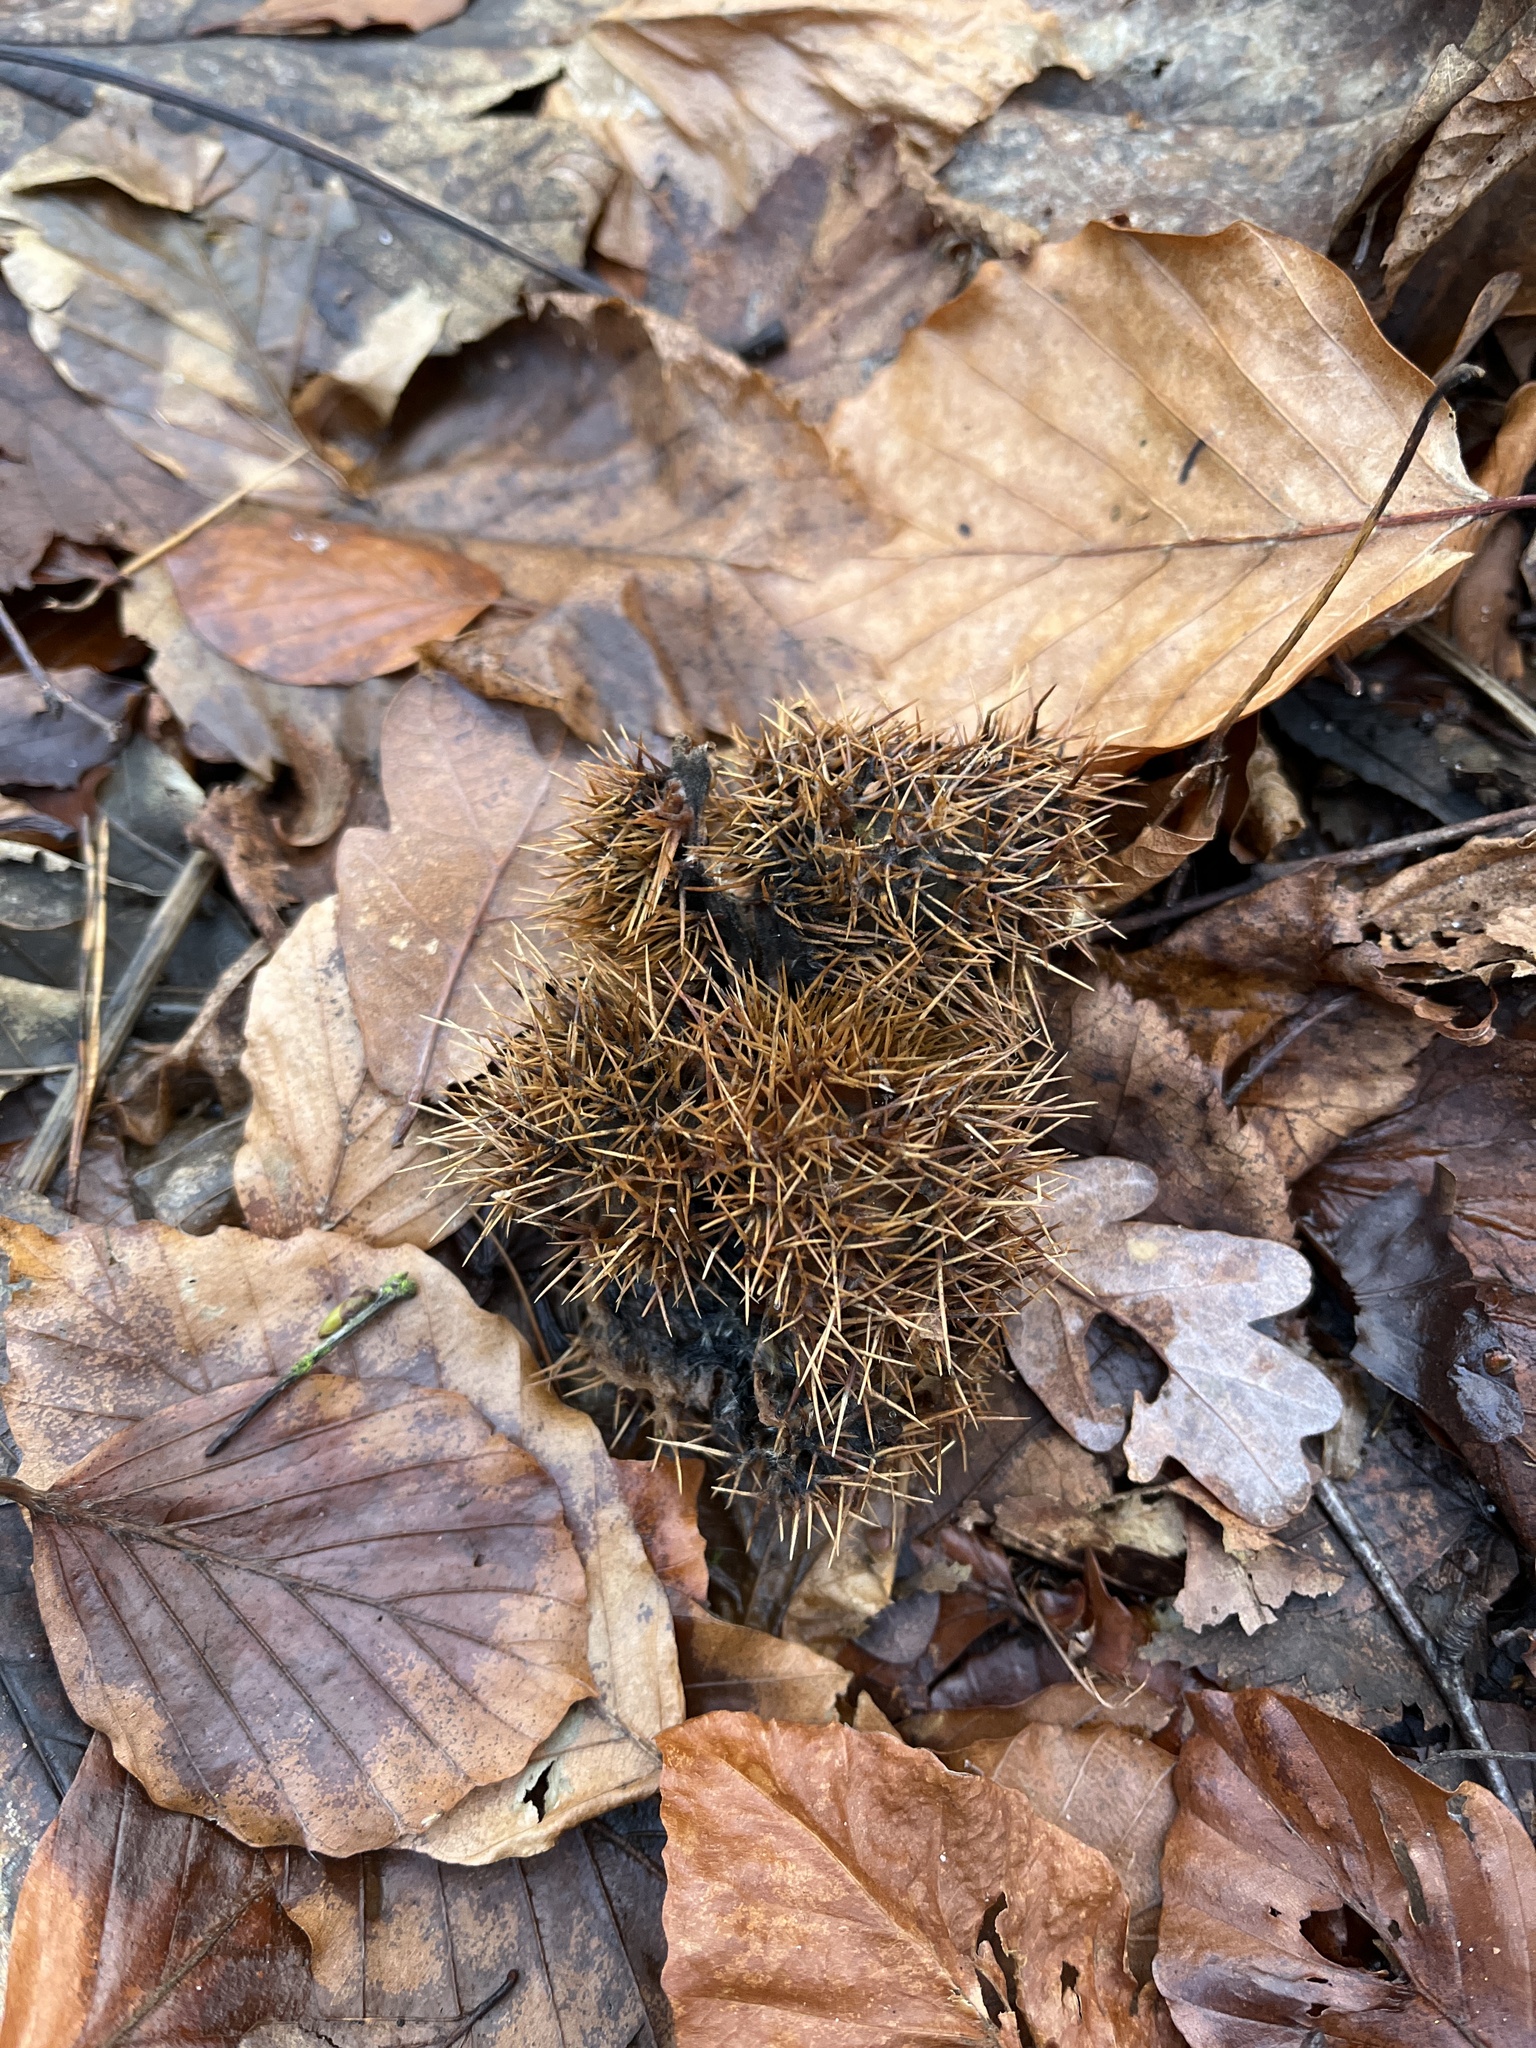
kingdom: Plantae
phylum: Tracheophyta
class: Magnoliopsida
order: Fagales
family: Fagaceae
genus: Castanea
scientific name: Castanea sativa
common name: Sweet chestnut
